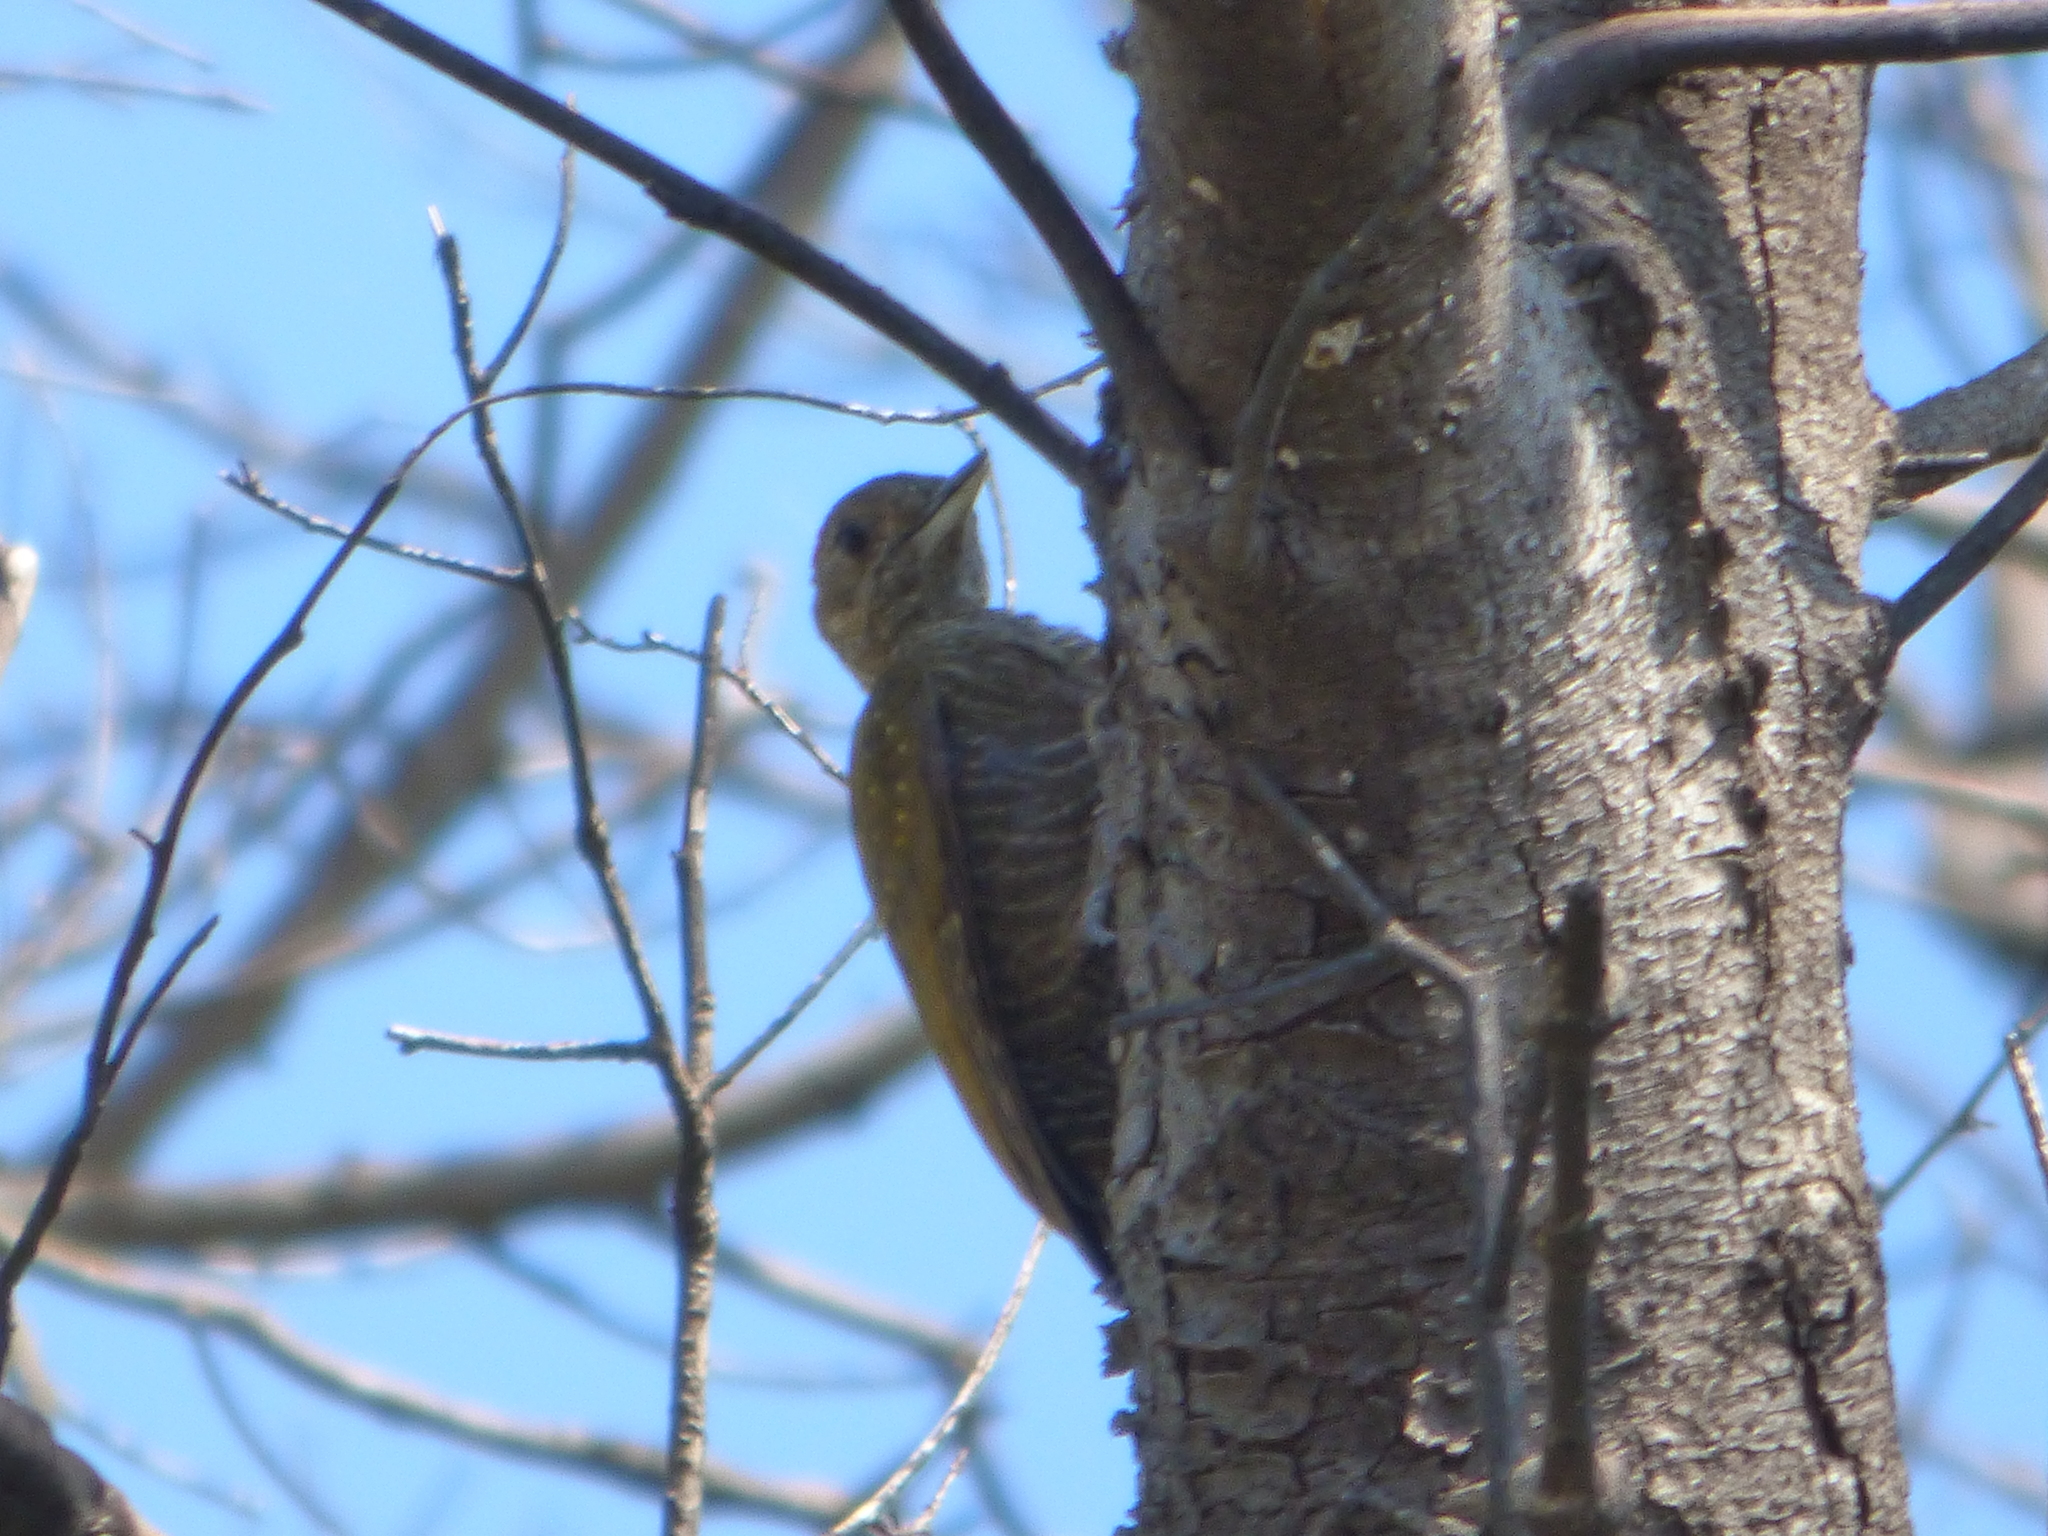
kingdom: Animalia
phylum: Chordata
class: Aves
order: Piciformes
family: Picidae
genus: Veniliornis
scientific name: Veniliornis passerinus
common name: Little woodpecker
